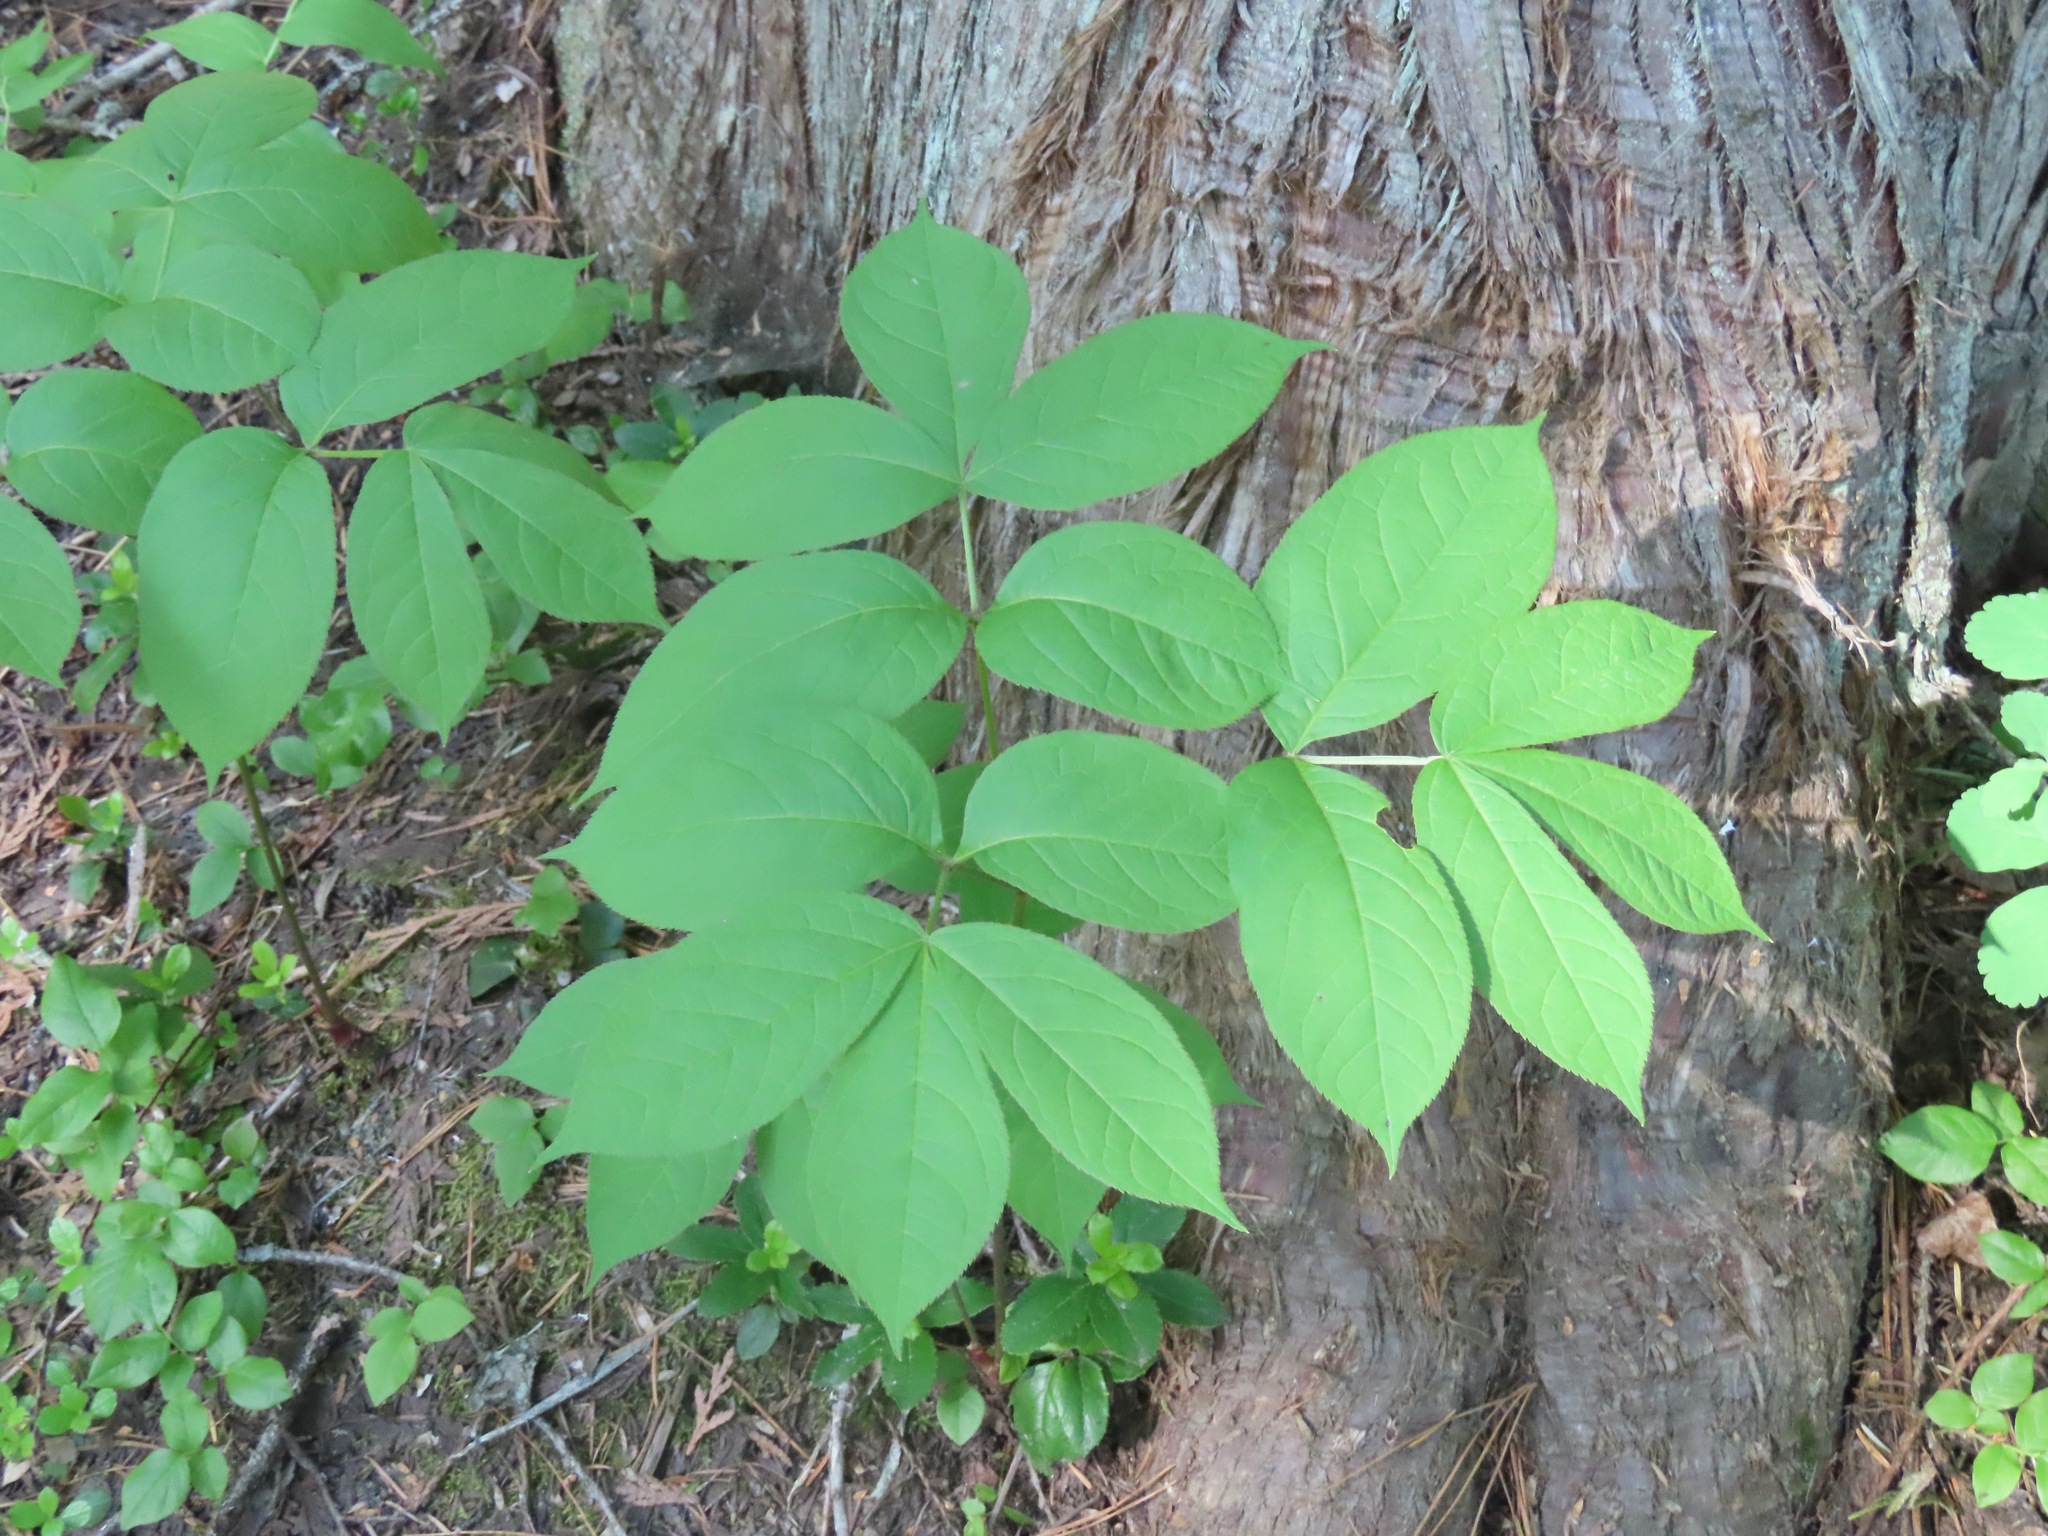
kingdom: Plantae
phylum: Tracheophyta
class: Magnoliopsida
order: Apiales
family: Araliaceae
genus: Aralia
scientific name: Aralia nudicaulis
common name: Wild sarsaparilla
